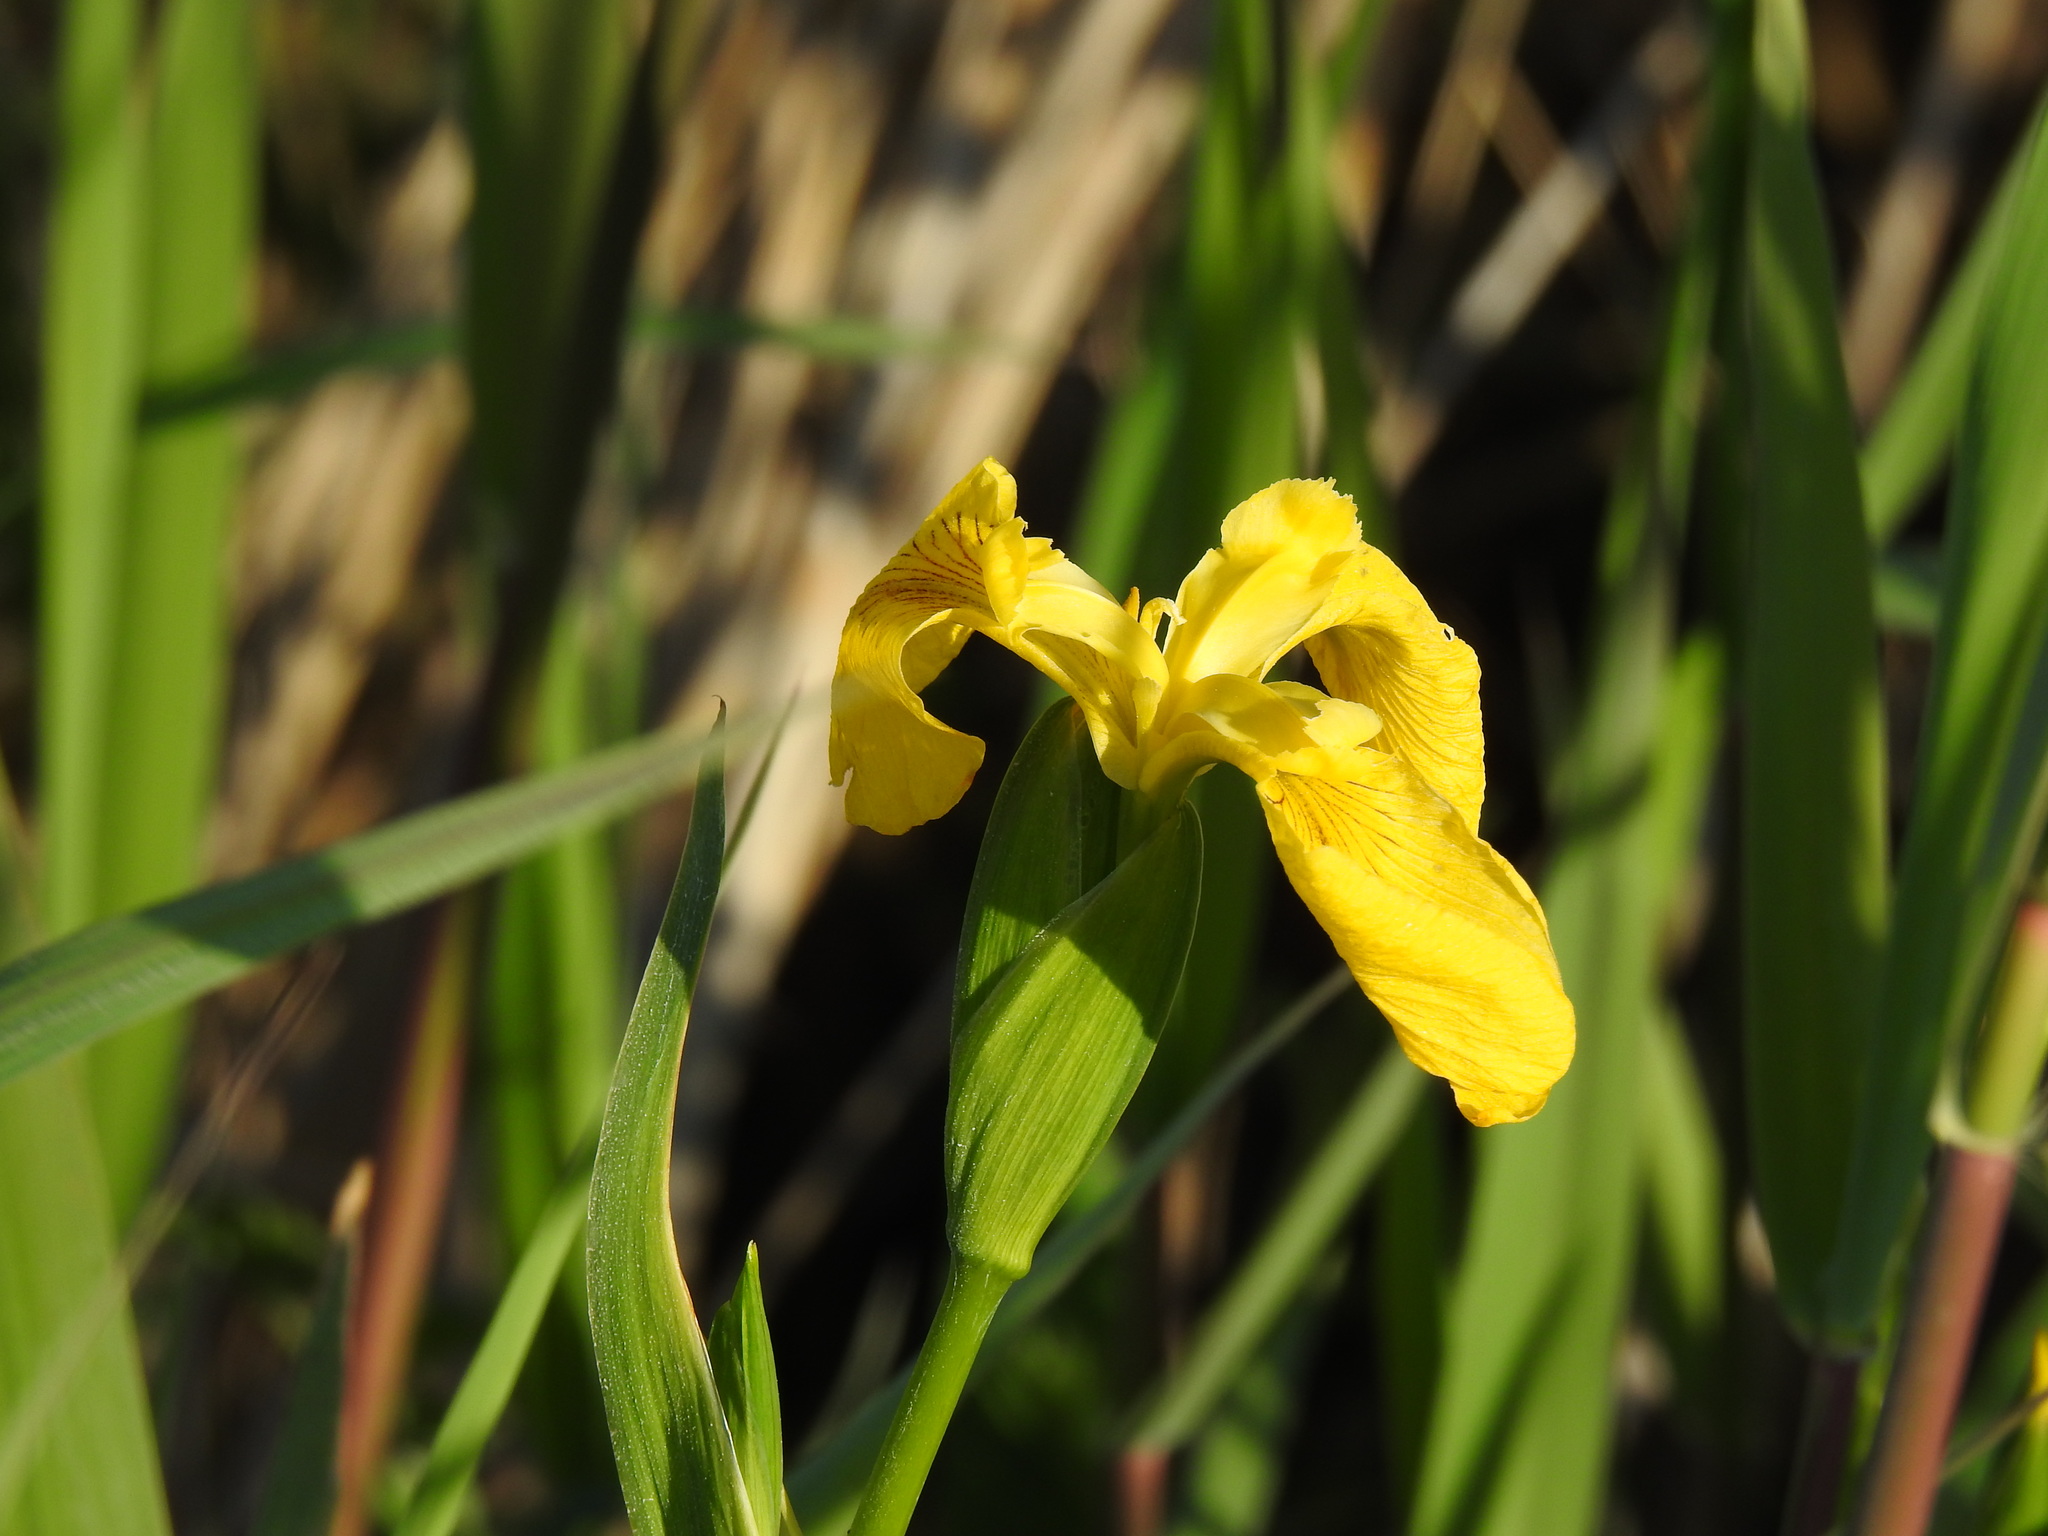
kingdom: Plantae
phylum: Tracheophyta
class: Liliopsida
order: Asparagales
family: Iridaceae
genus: Iris
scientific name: Iris pseudacorus
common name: Yellow flag
